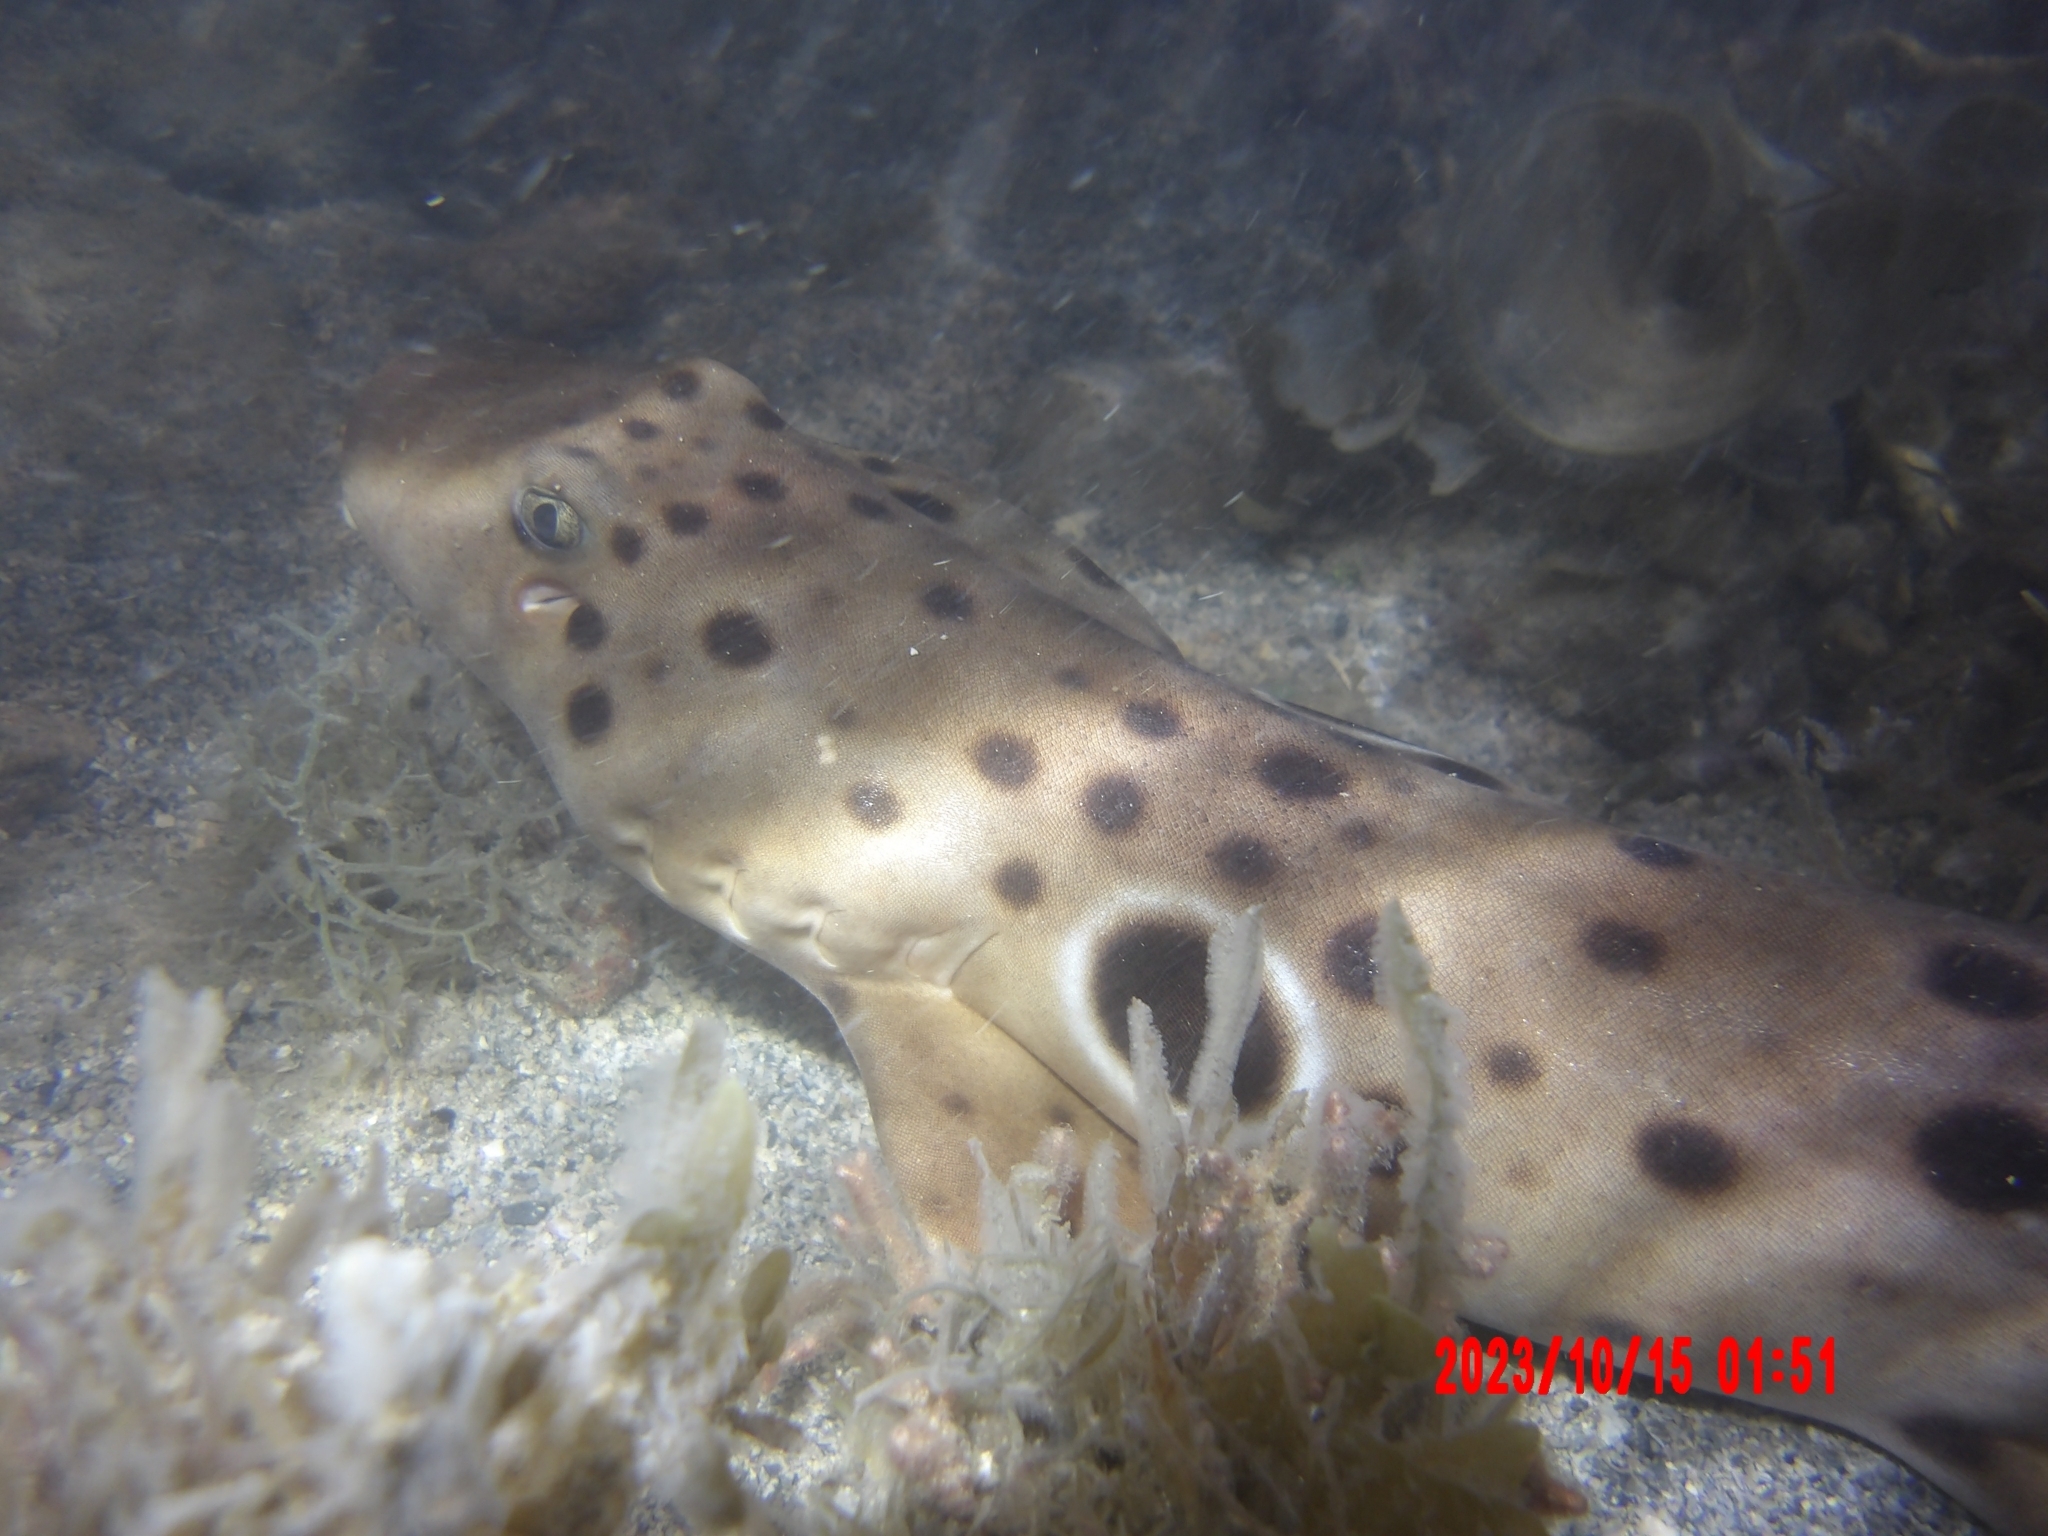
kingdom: Animalia
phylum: Chordata
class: Elasmobranchii
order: Orectolobiformes
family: Hemiscylliidae
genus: Hemiscyllium
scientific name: Hemiscyllium ocellatum
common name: Epaulette shark
